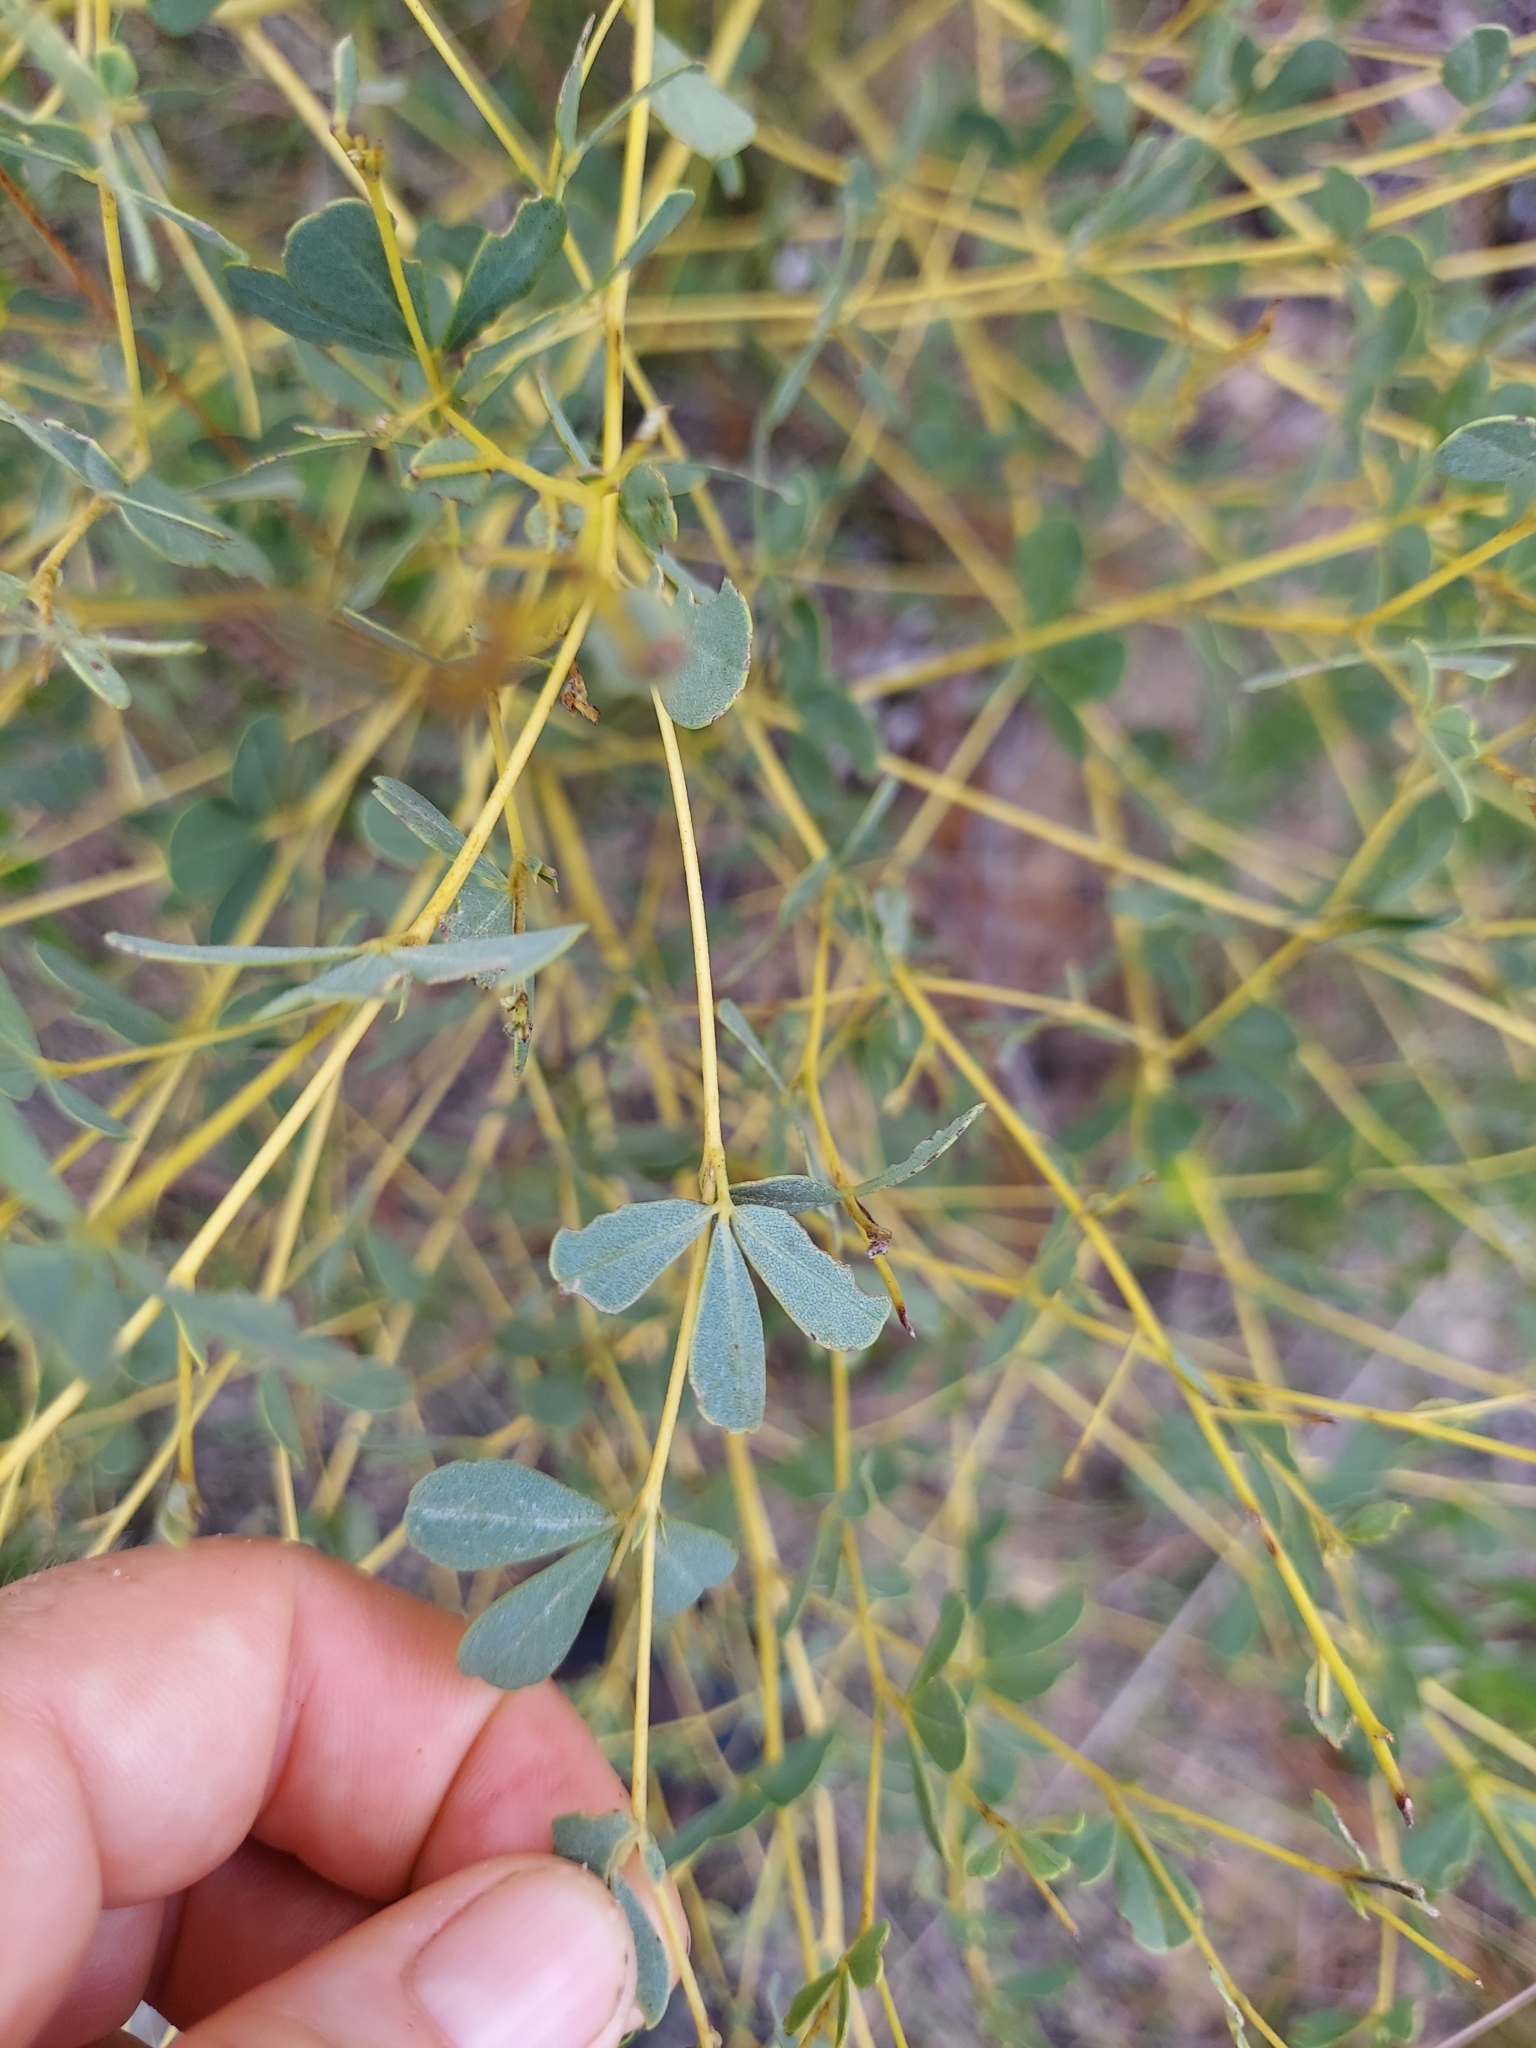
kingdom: Plantae
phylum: Tracheophyta
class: Magnoliopsida
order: Fabales
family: Fabaceae
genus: Baptisia
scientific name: Baptisia lecontei
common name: Pineland wild indigo
